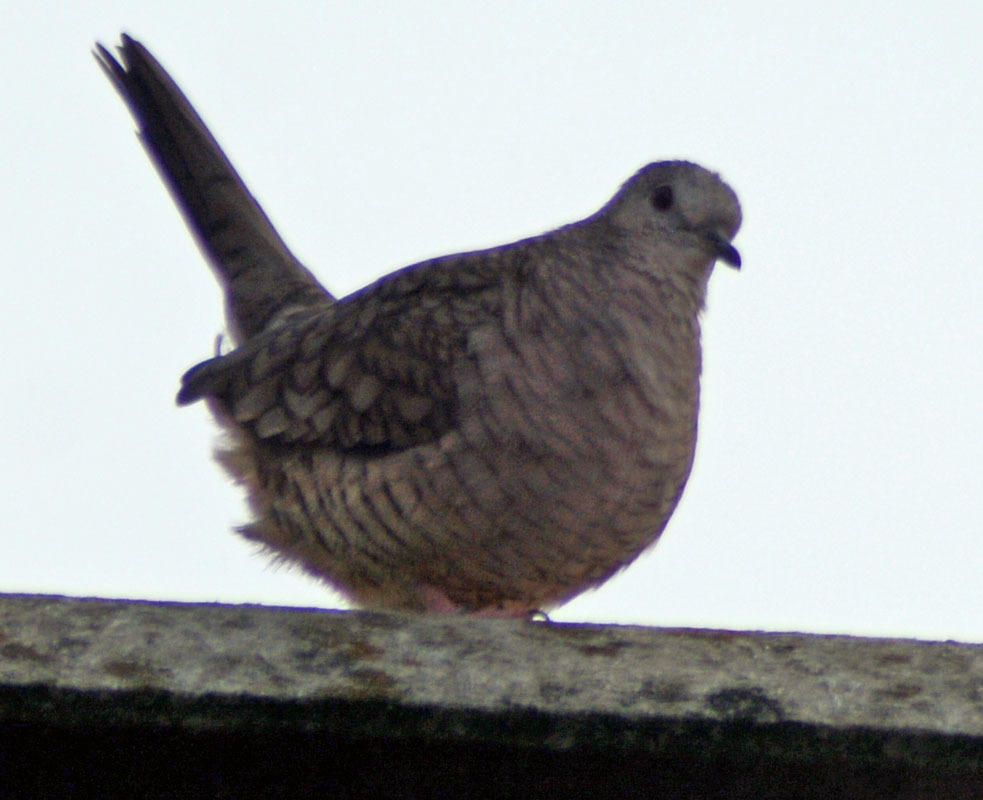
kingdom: Animalia
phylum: Chordata
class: Aves
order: Columbiformes
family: Columbidae
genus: Columbina
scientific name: Columbina inca
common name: Inca dove
